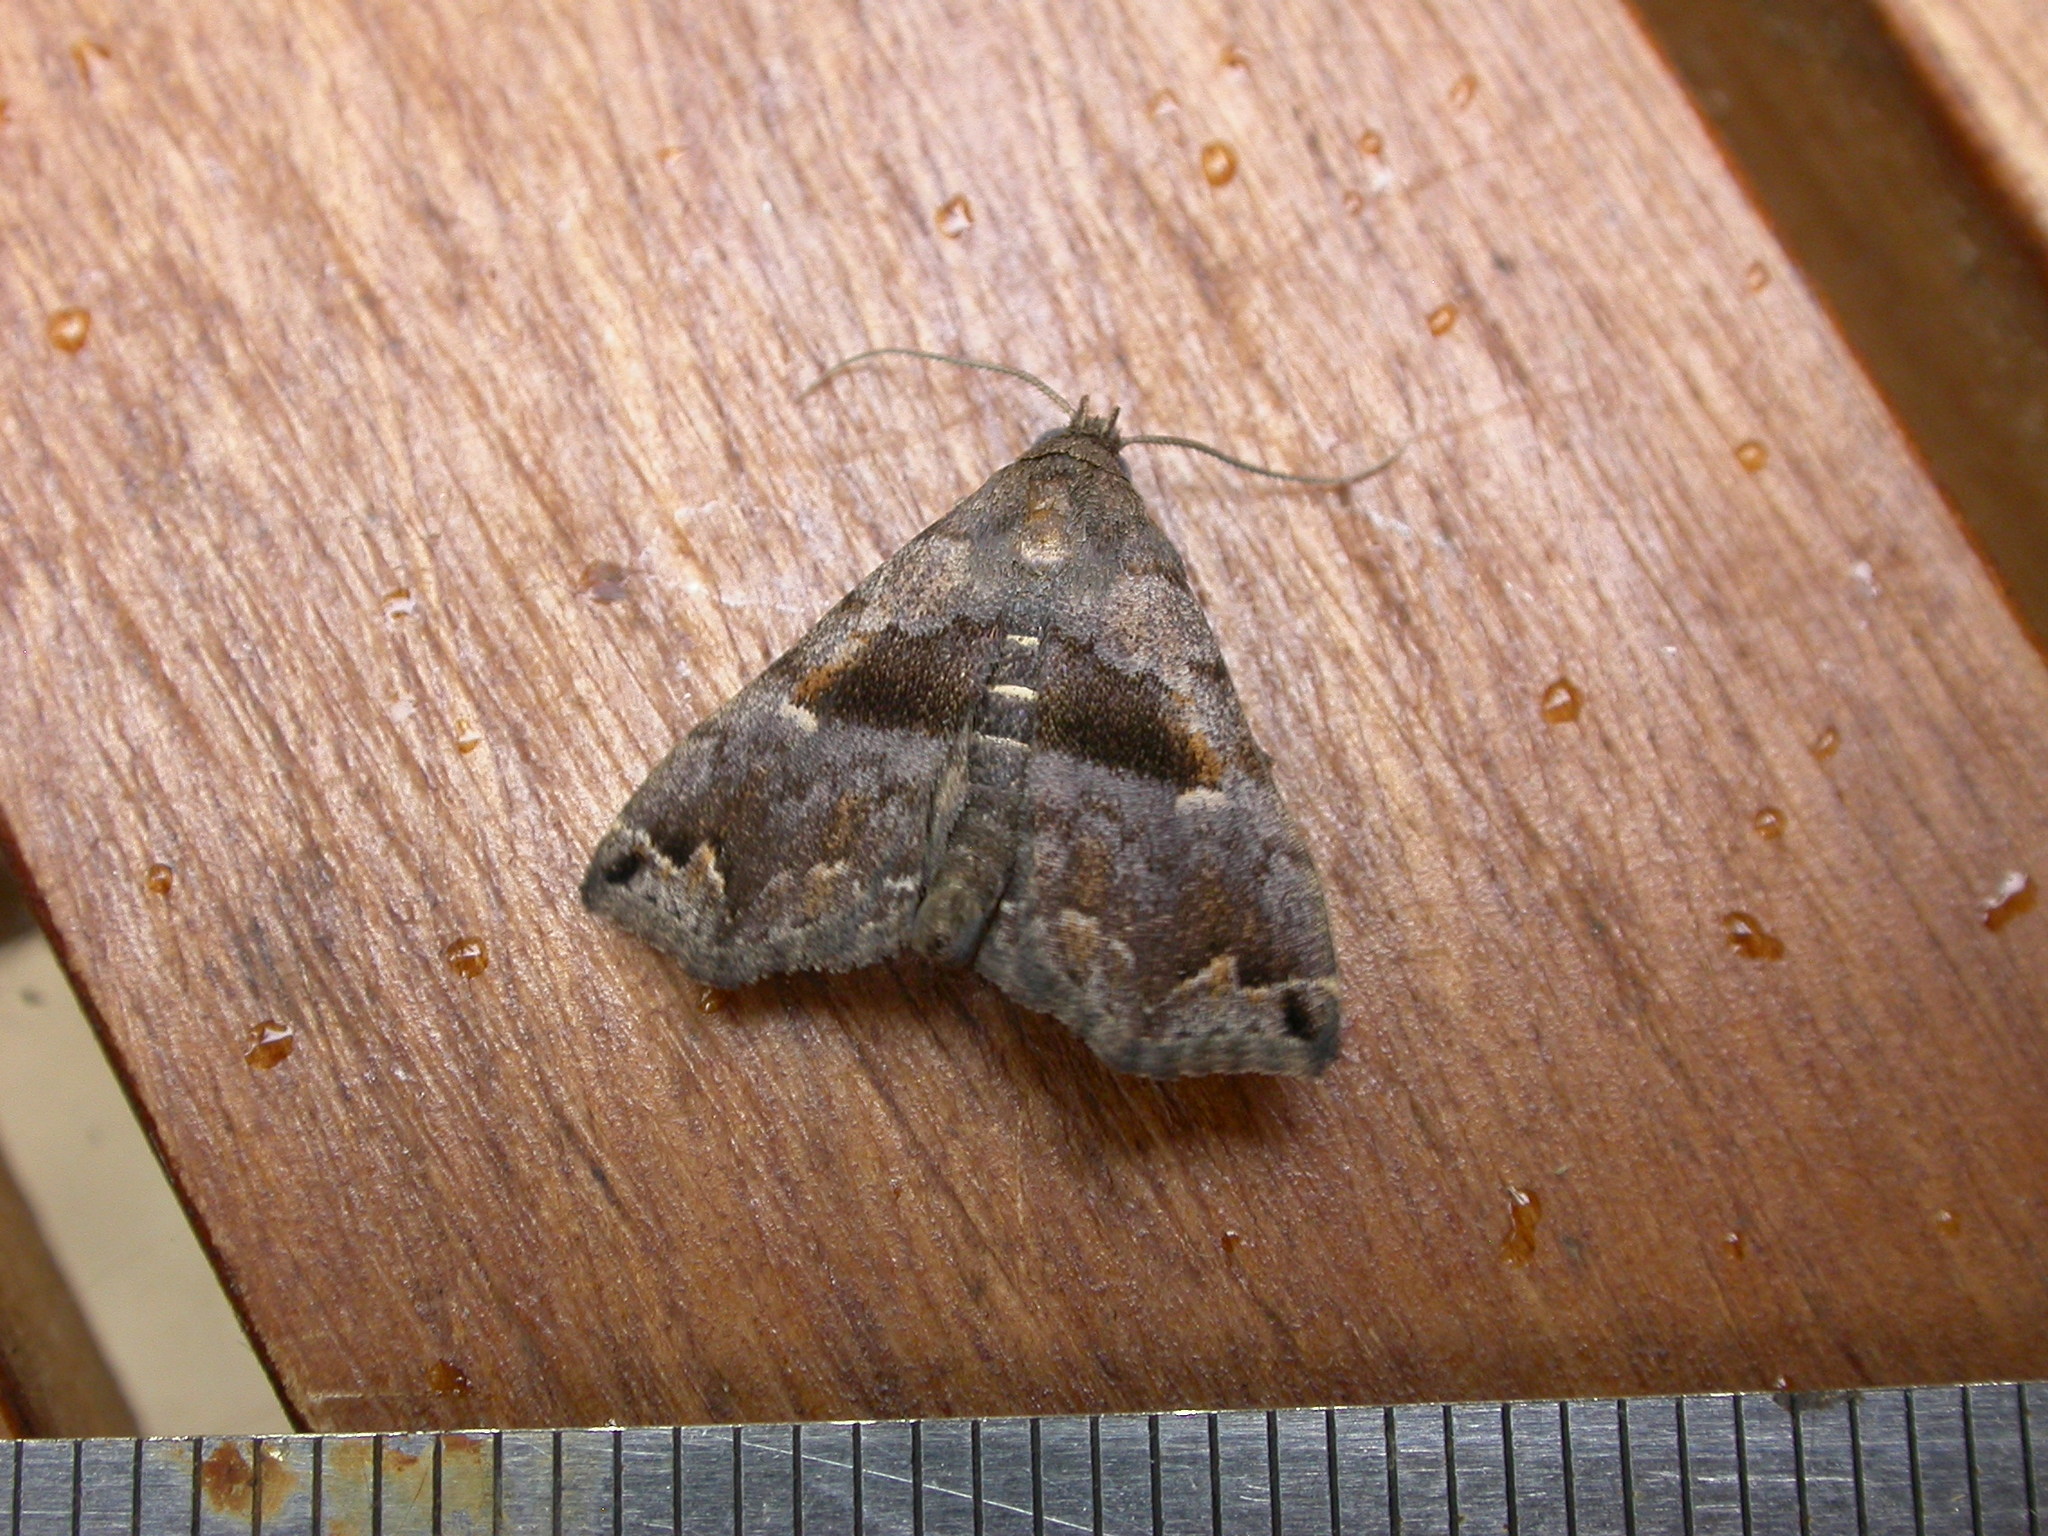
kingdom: Animalia
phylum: Arthropoda
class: Insecta
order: Lepidoptera
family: Erebidae
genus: Polypogon
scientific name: Polypogon Hipoepa fractalis
